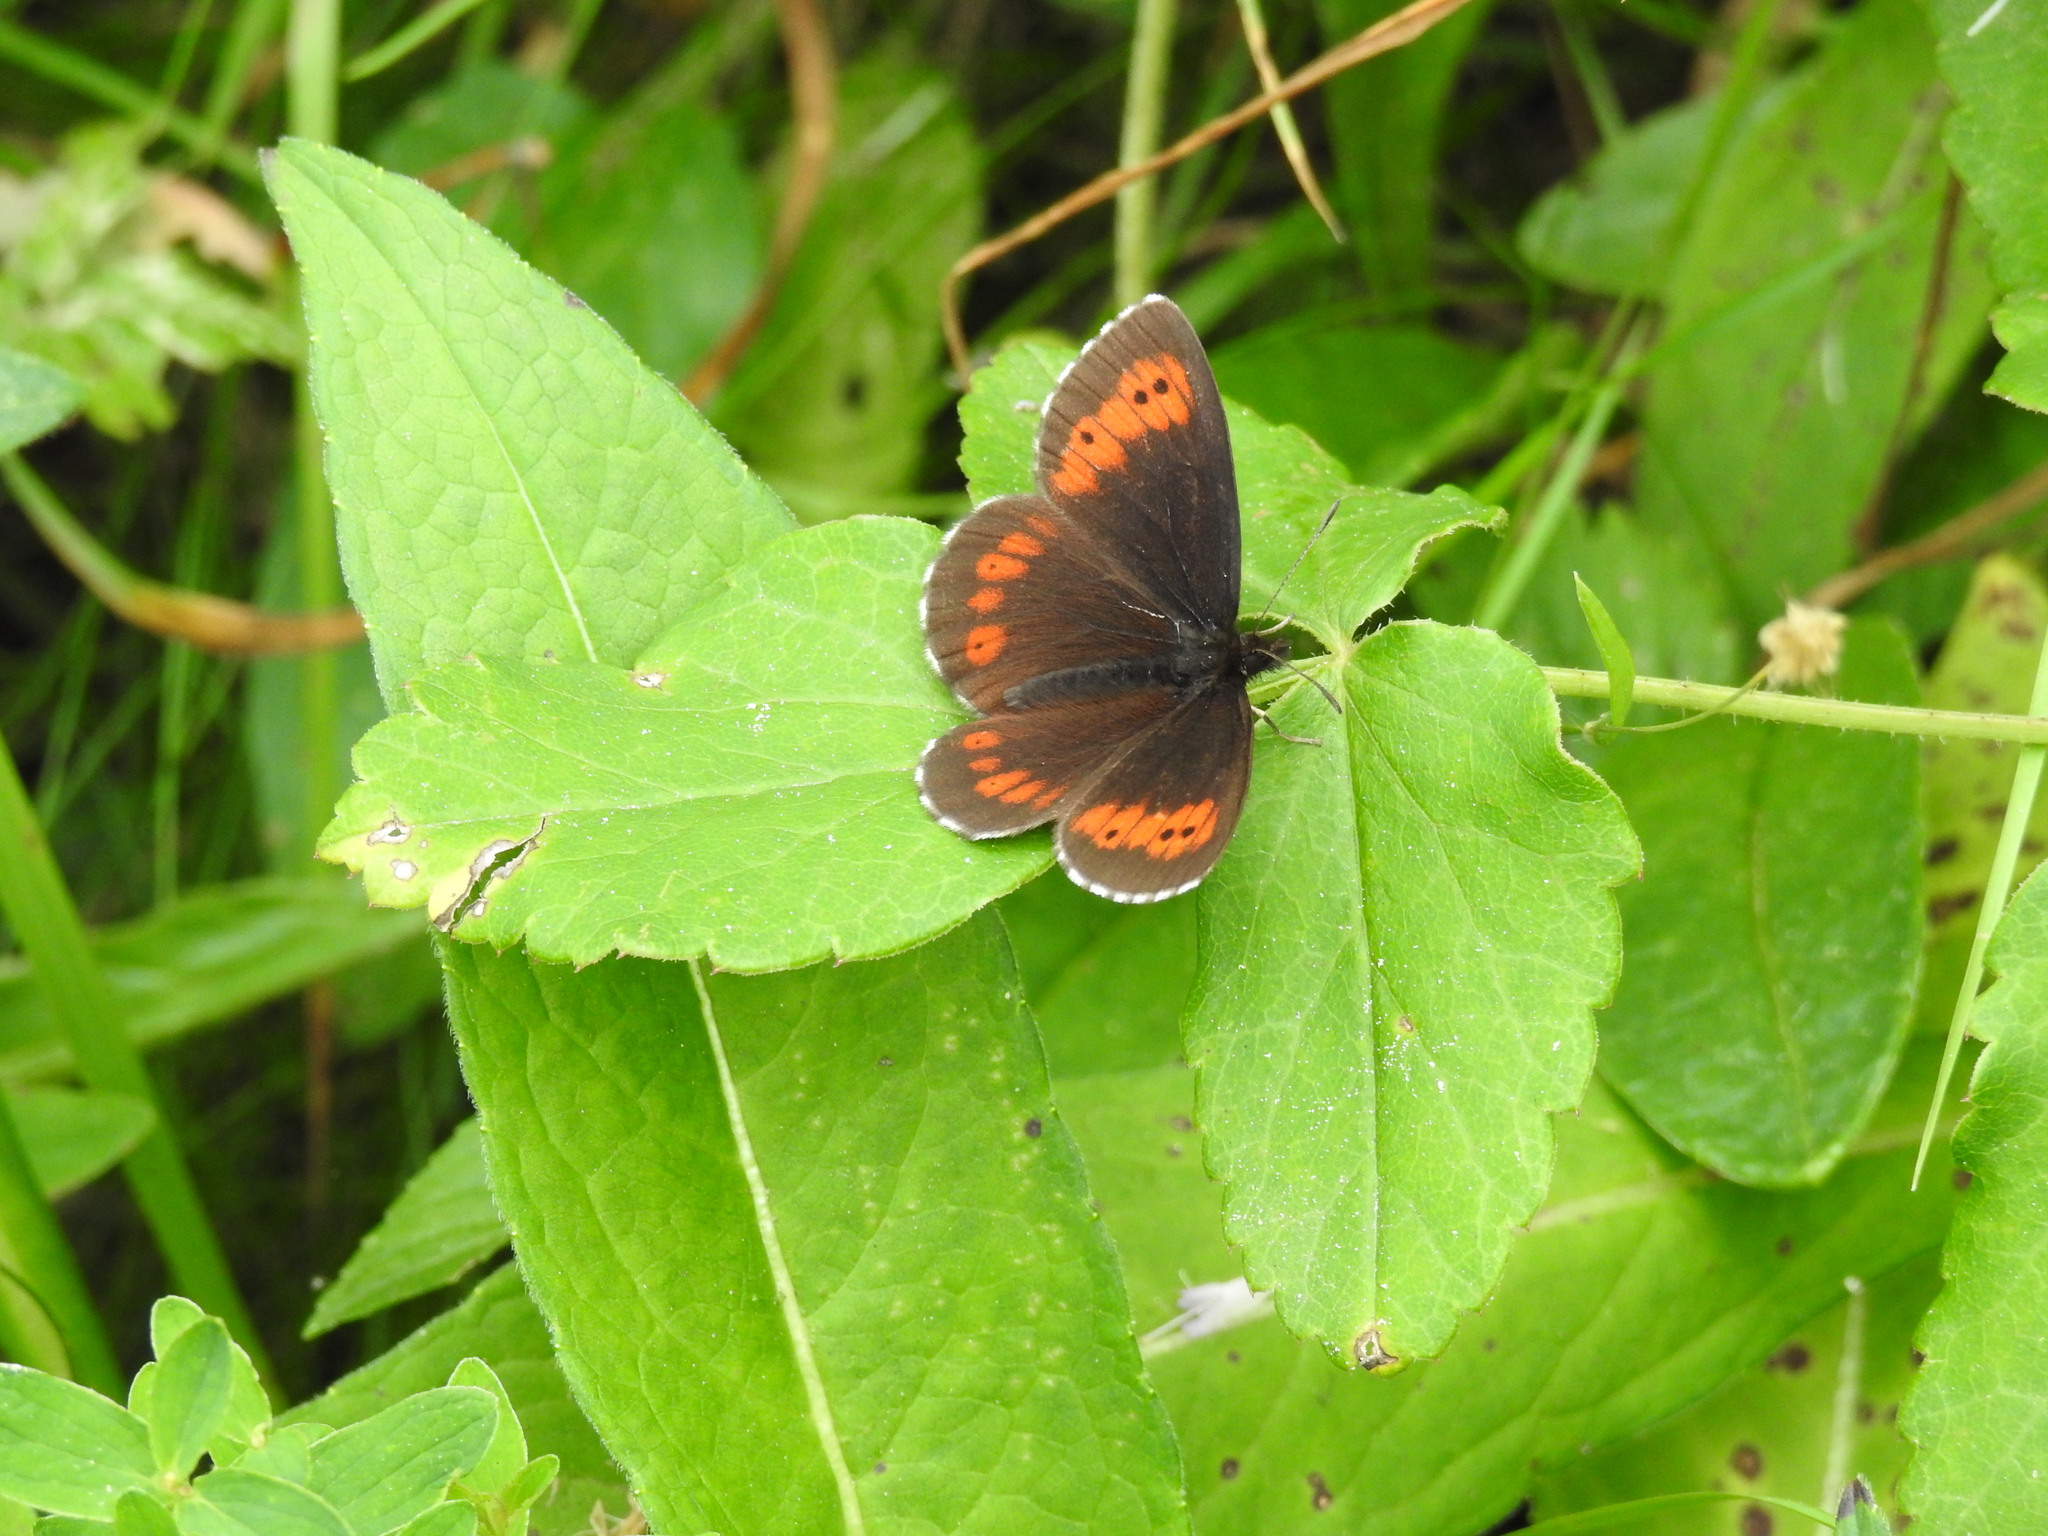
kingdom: Animalia
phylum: Arthropoda
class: Insecta
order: Lepidoptera
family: Nymphalidae
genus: Erebia
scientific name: Erebia euryale
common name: Large ringlet
